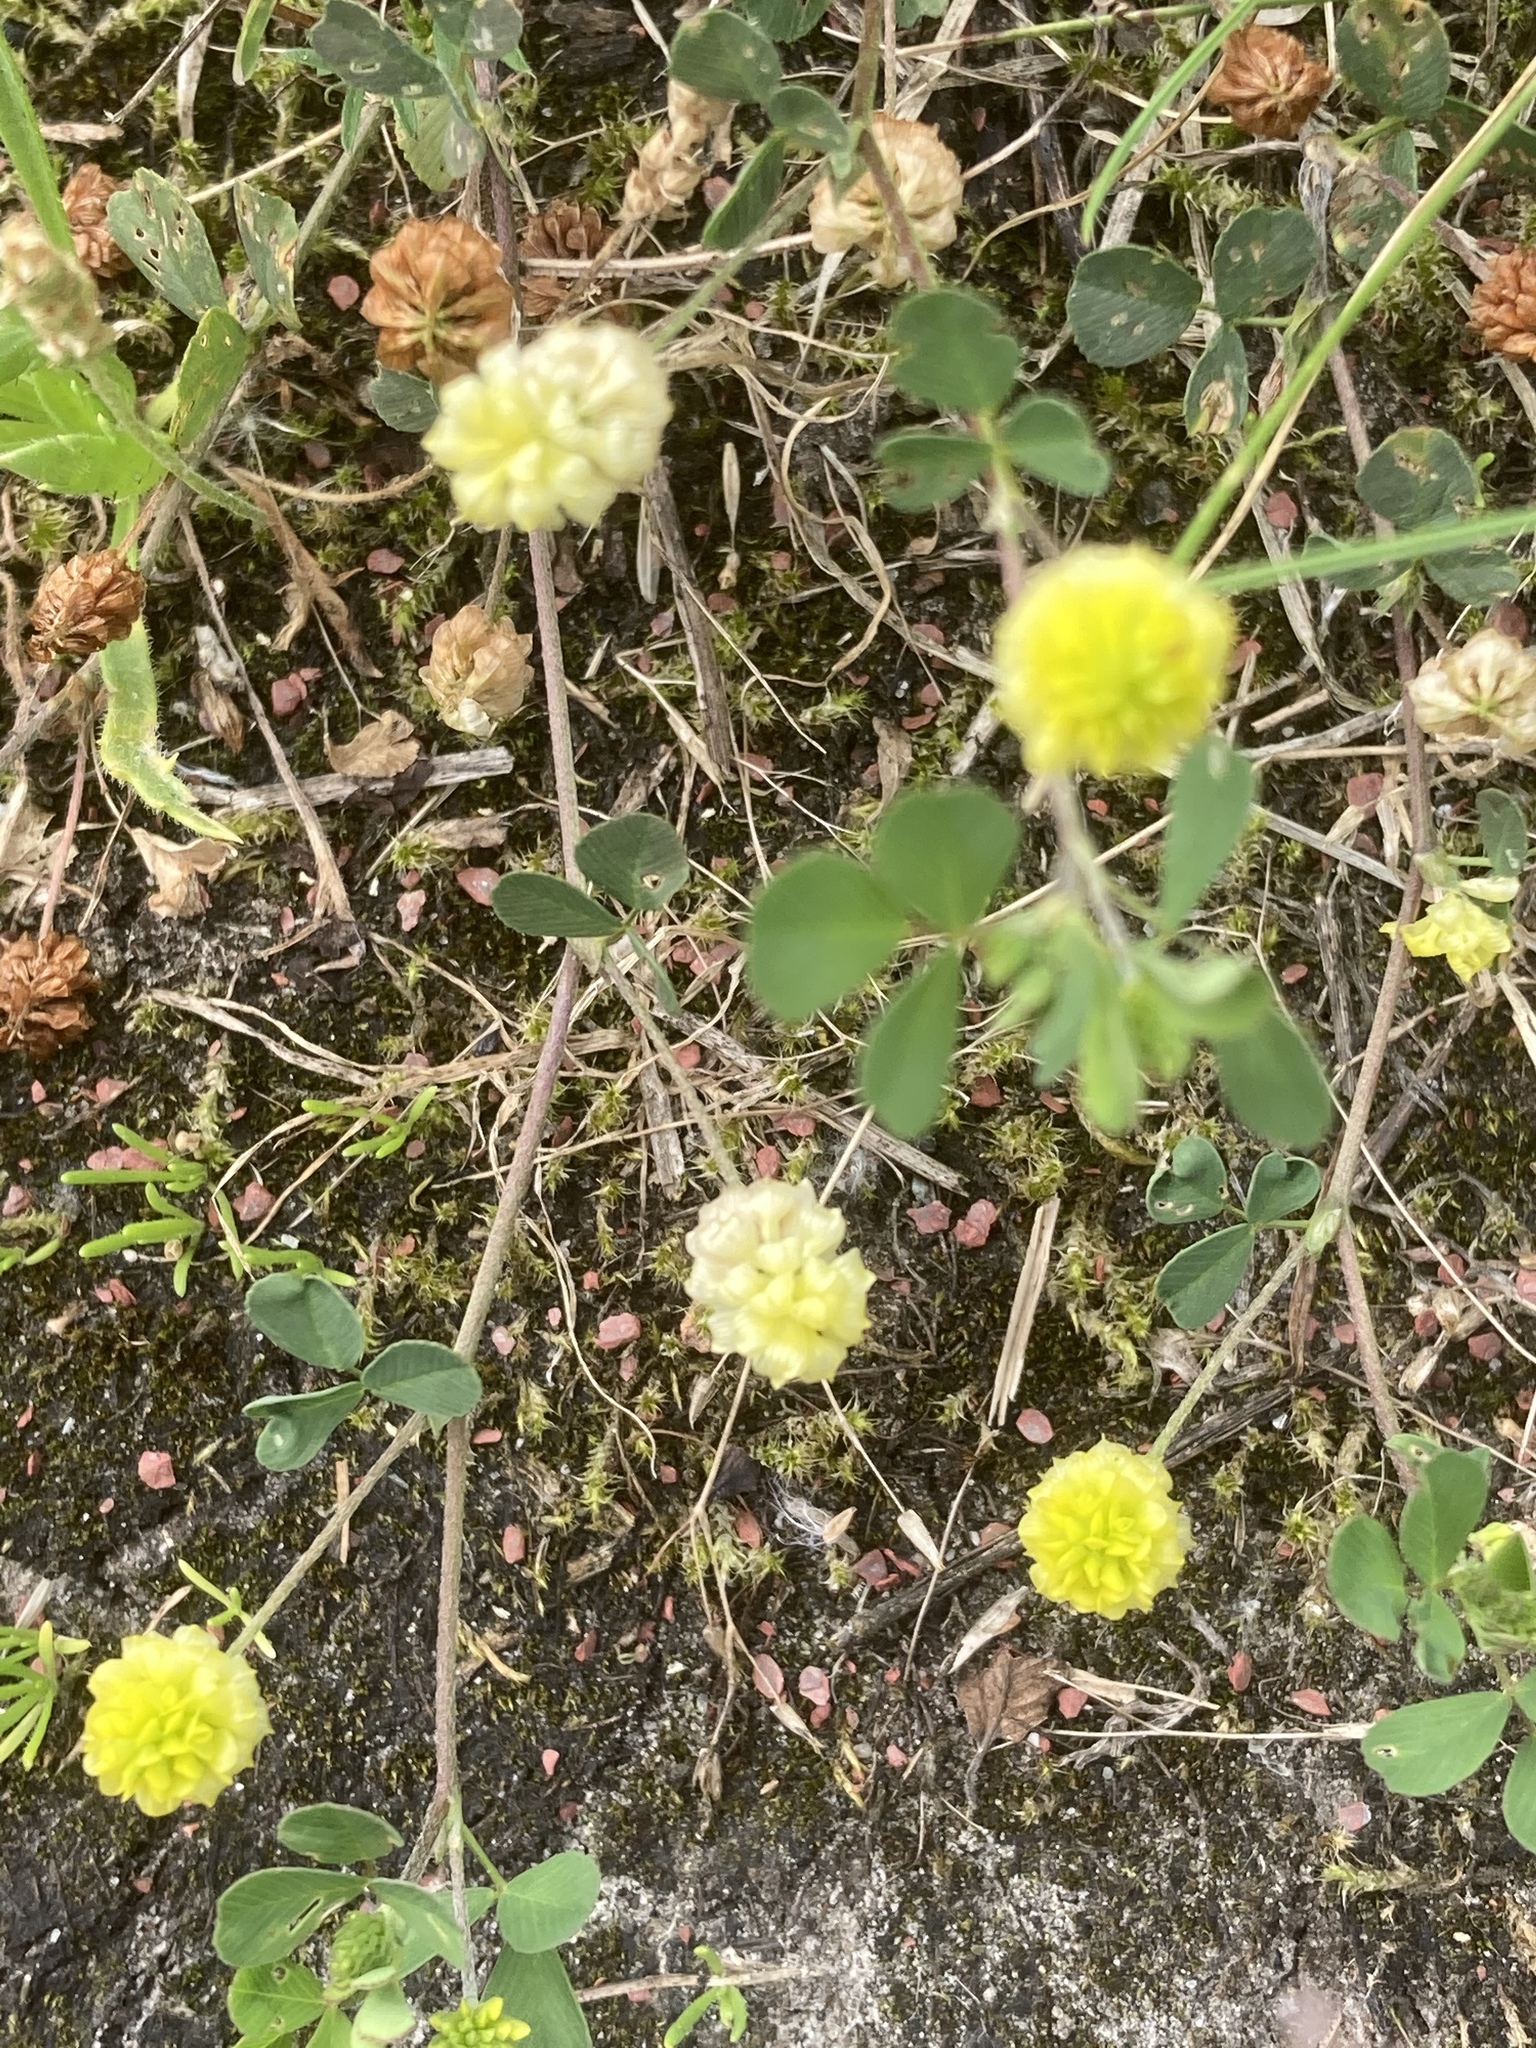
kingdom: Plantae
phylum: Tracheophyta
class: Magnoliopsida
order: Fabales
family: Fabaceae
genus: Trifolium
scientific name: Trifolium campestre
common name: Field clover
